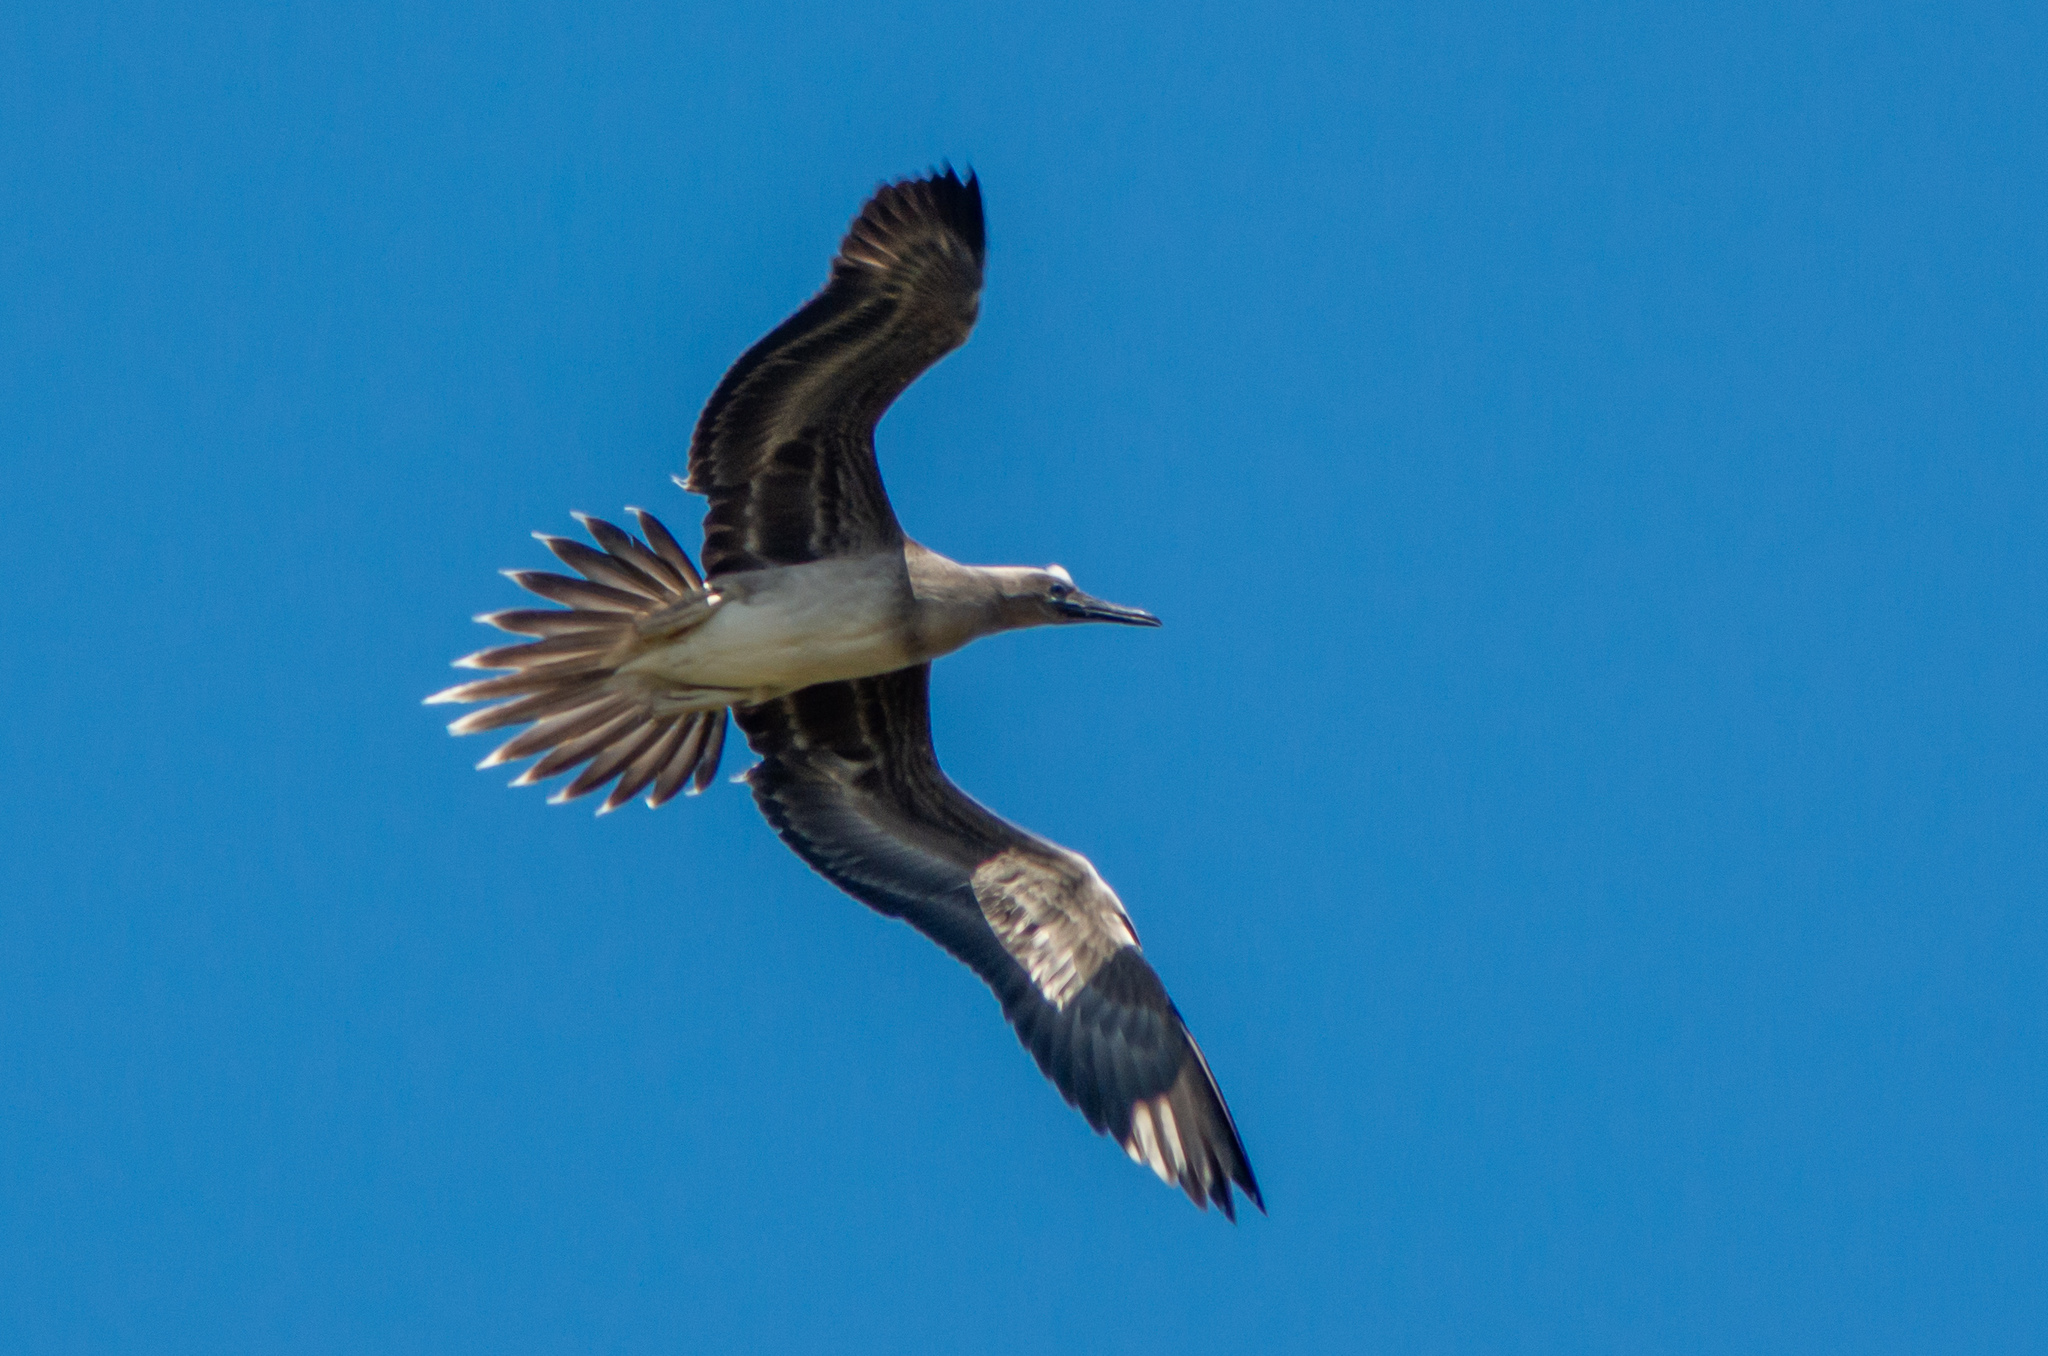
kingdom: Animalia
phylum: Chordata
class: Aves
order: Suliformes
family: Sulidae
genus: Sula
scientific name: Sula sula
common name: Red-footed booby
